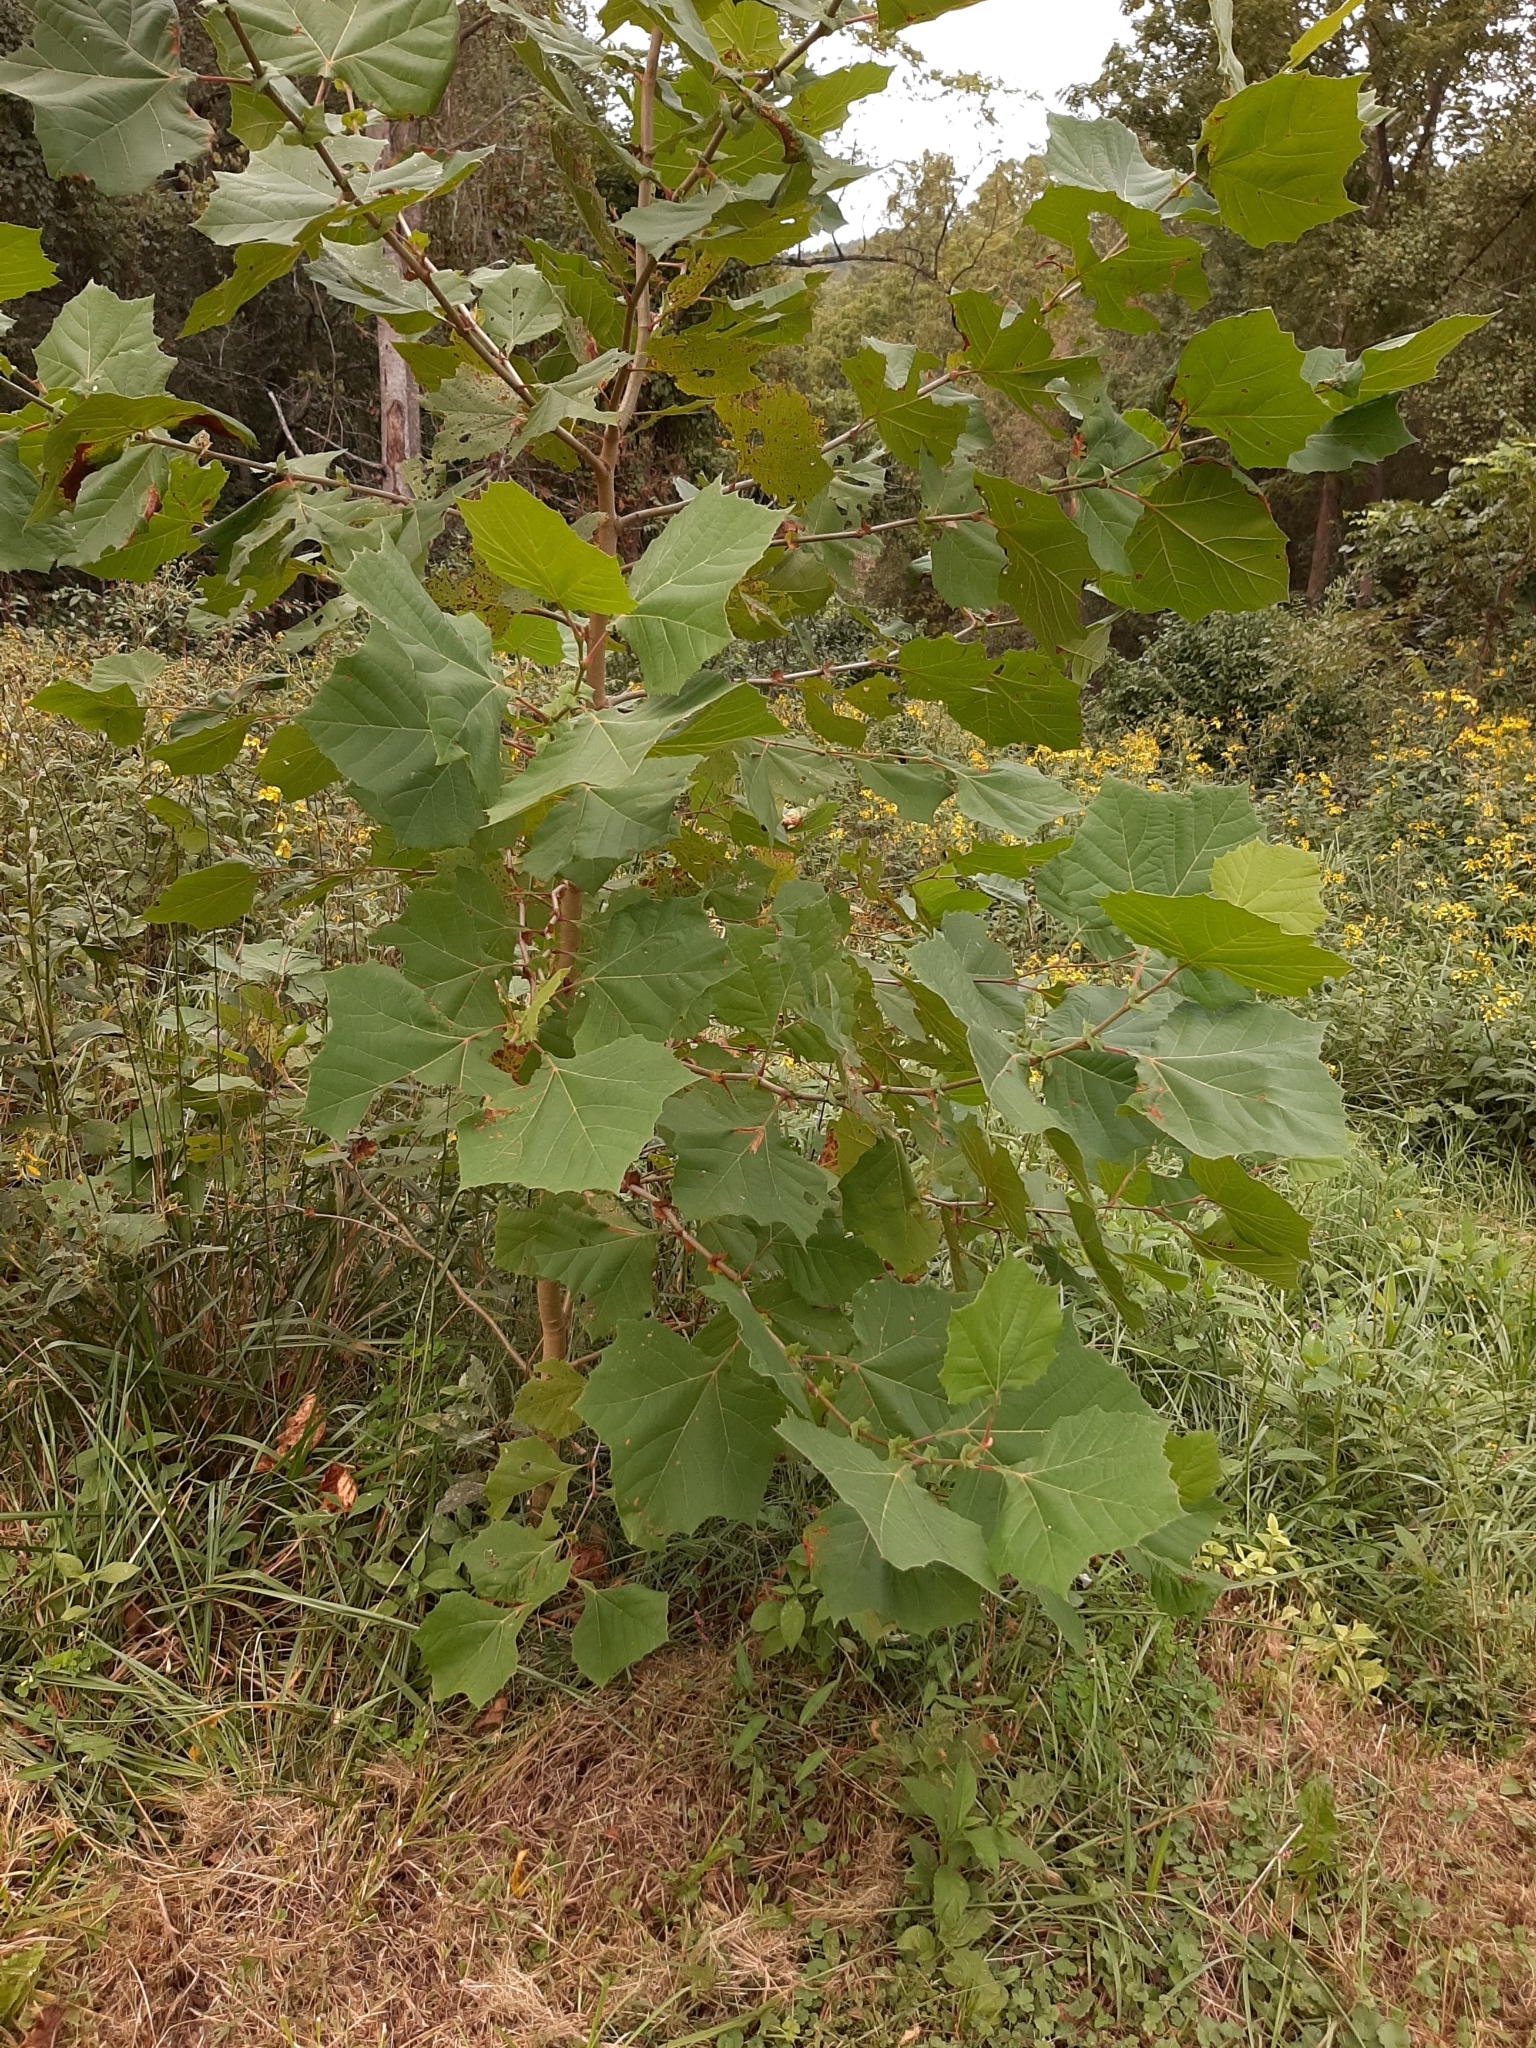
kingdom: Plantae
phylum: Tracheophyta
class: Magnoliopsida
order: Proteales
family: Platanaceae
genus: Platanus
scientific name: Platanus occidentalis
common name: American sycamore
